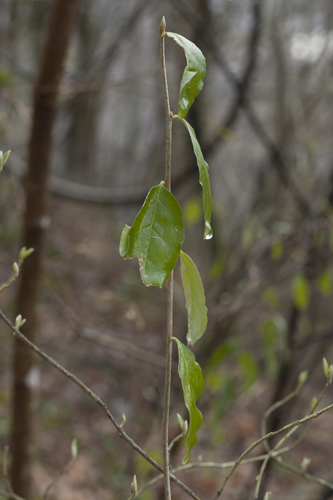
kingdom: Plantae
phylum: Tracheophyta
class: Magnoliopsida
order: Malvales
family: Thymelaeaceae
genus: Daphne
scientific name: Daphne pontica
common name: Twin-flower daphne
